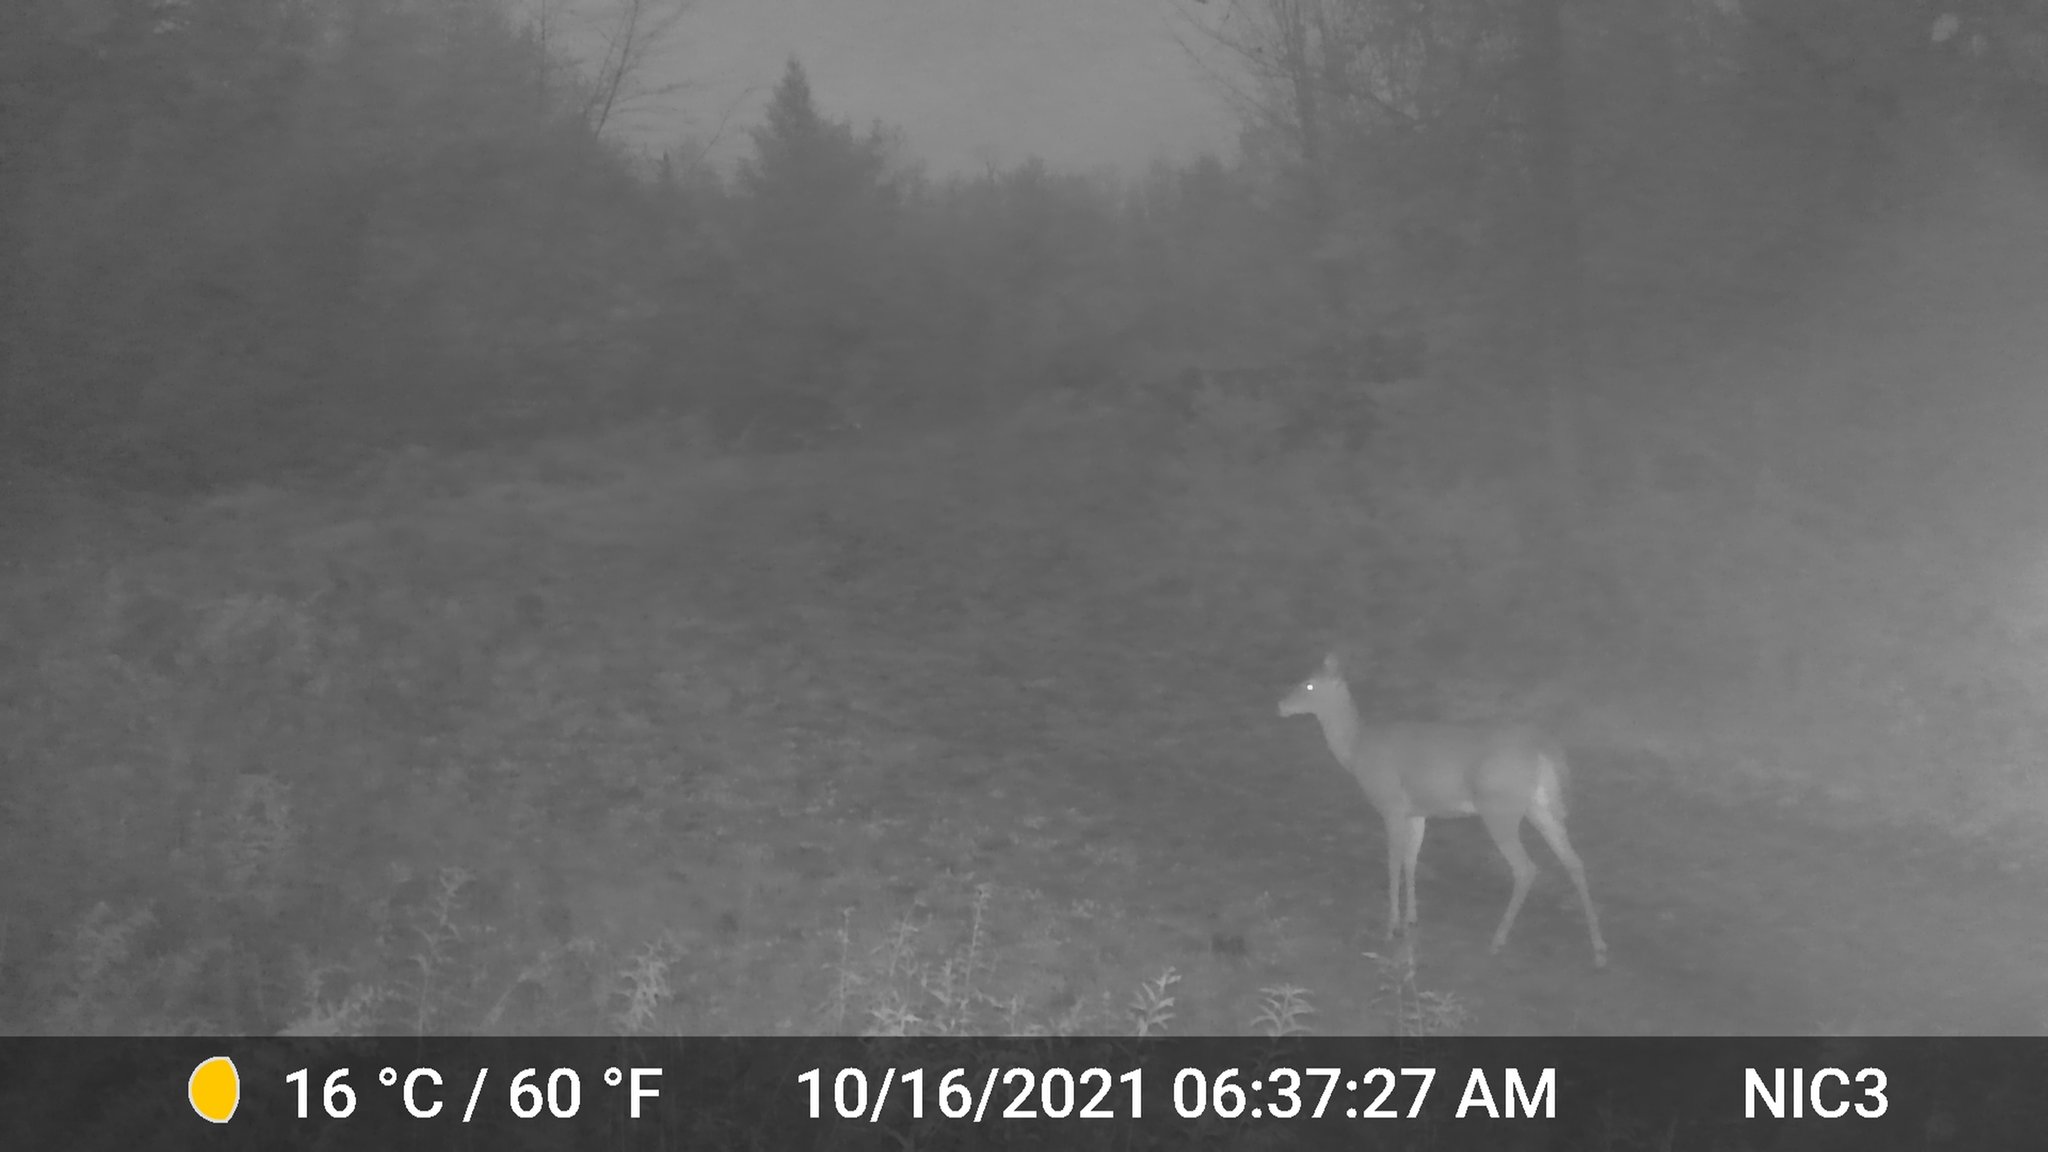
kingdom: Animalia
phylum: Chordata
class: Mammalia
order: Artiodactyla
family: Cervidae
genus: Odocoileus
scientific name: Odocoileus virginianus
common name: White-tailed deer
